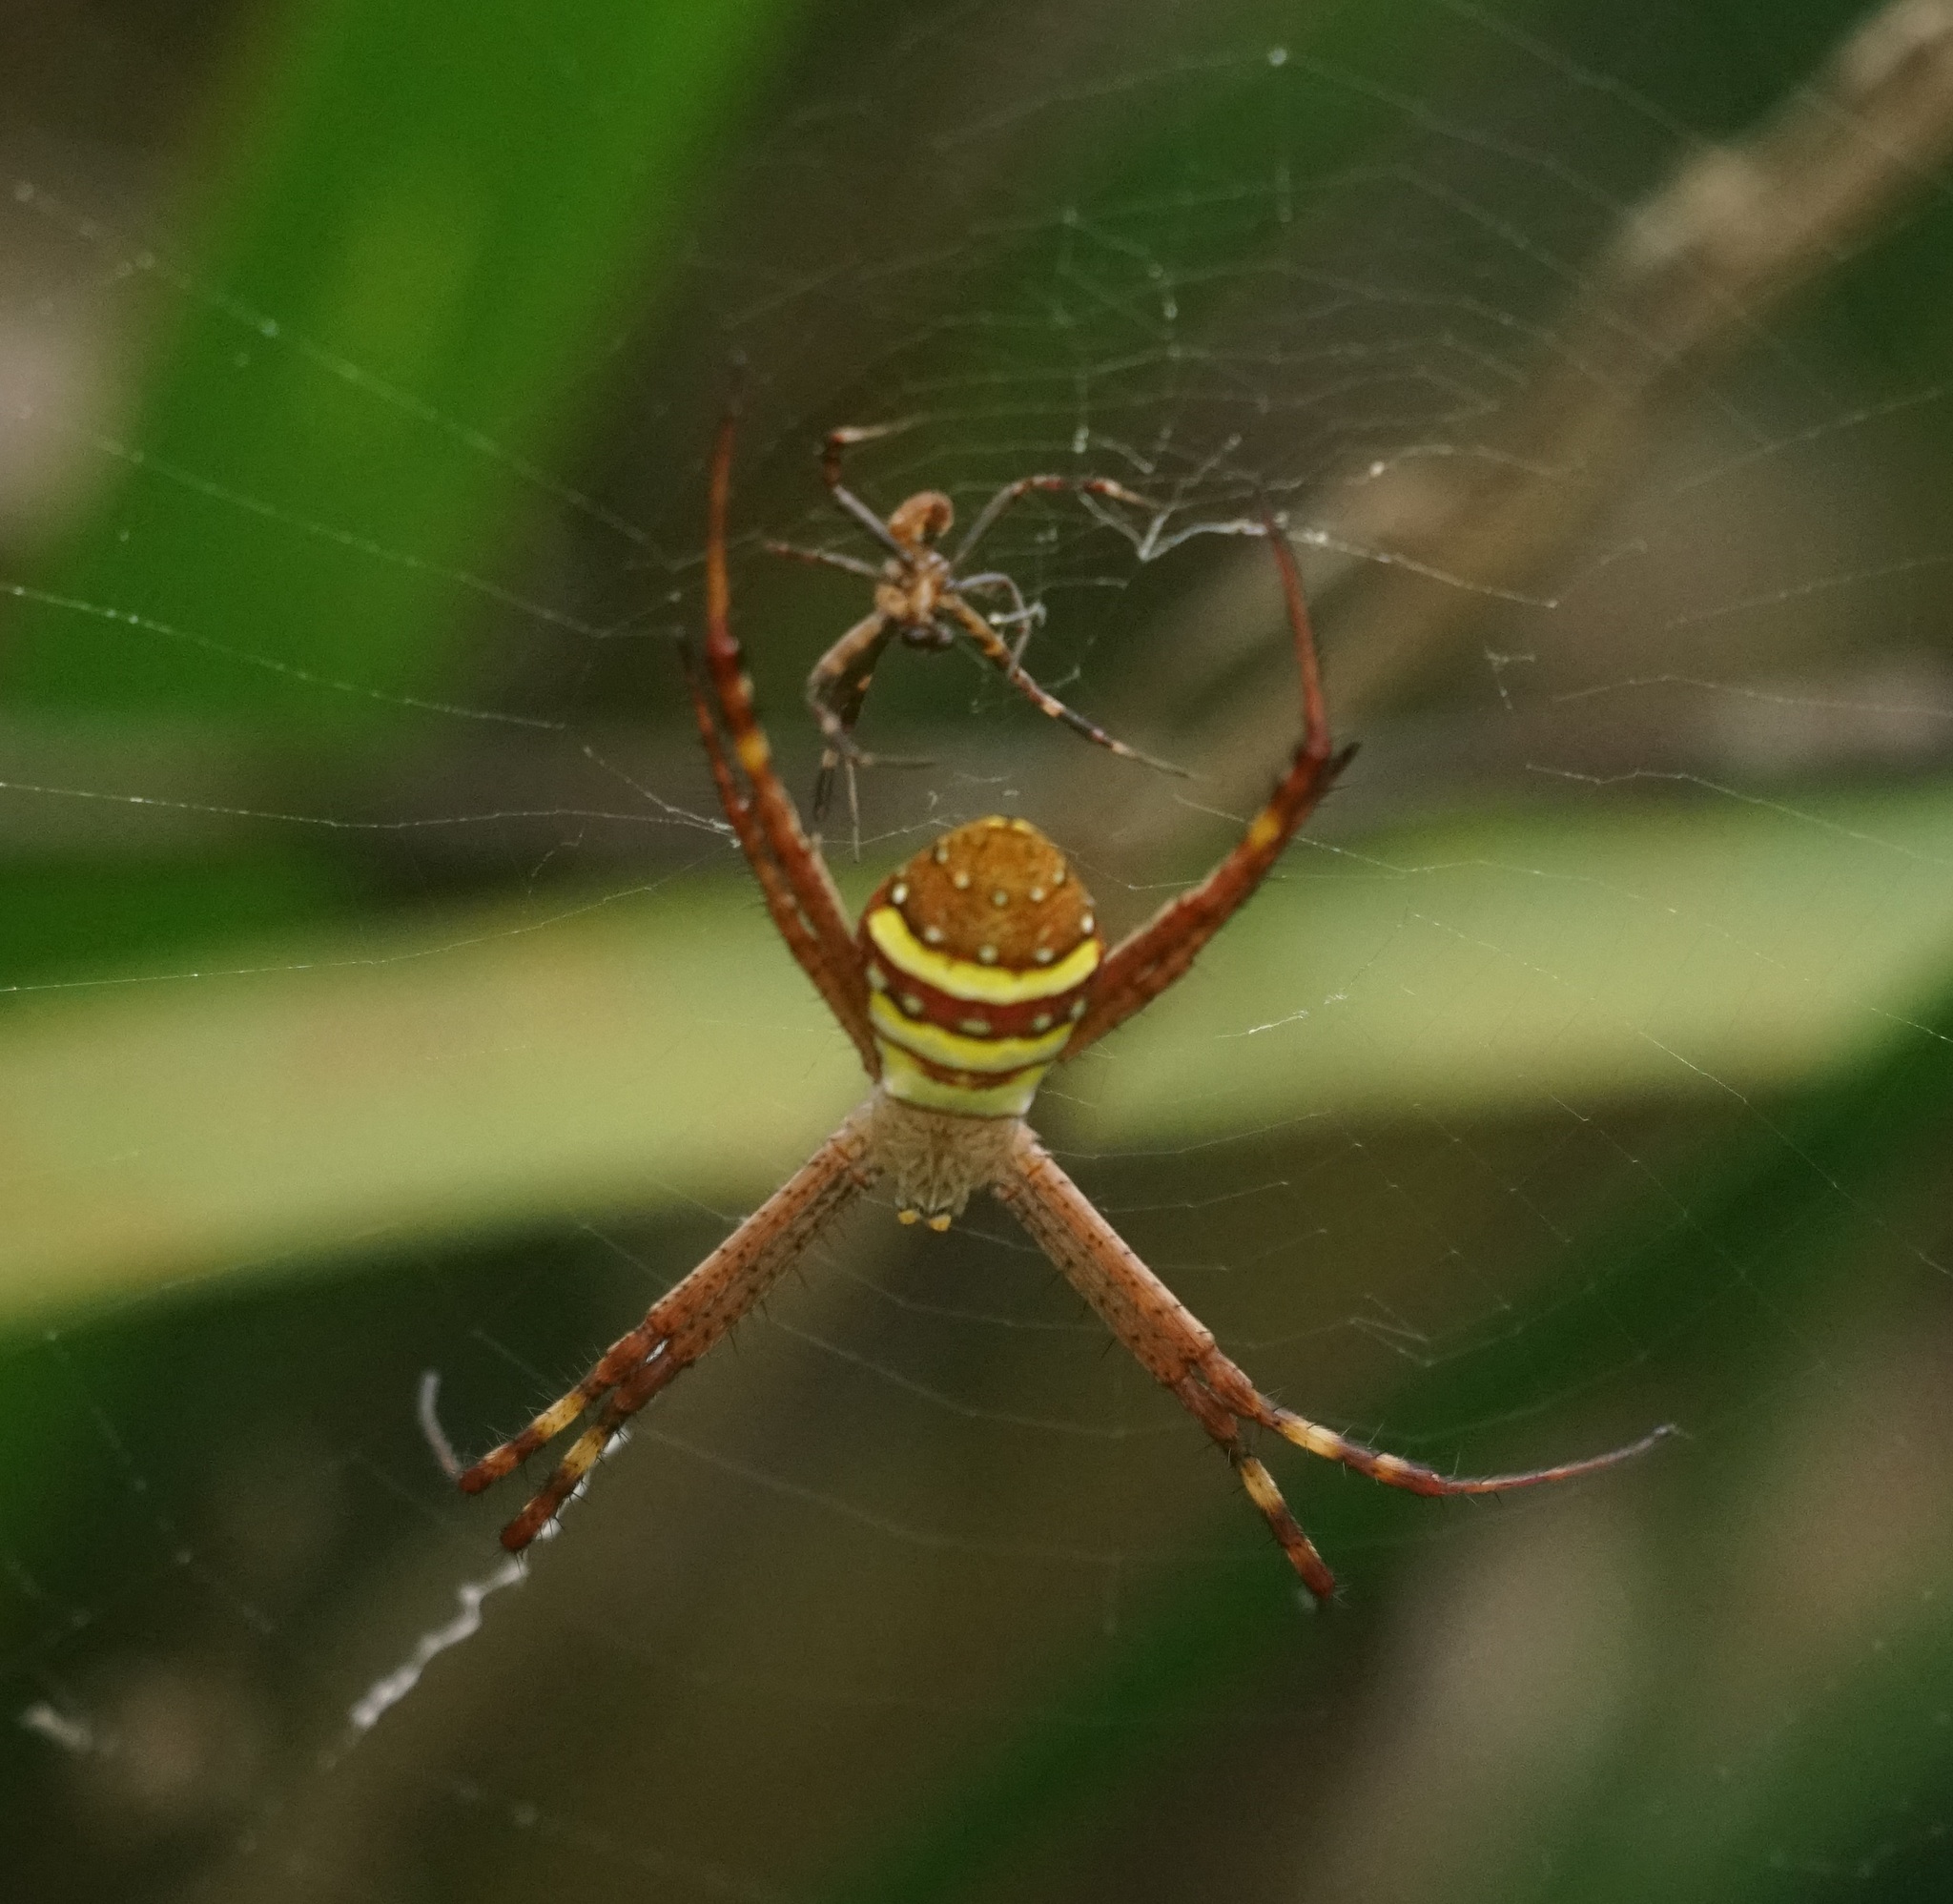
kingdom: Animalia
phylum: Arthropoda
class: Arachnida
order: Araneae
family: Araneidae
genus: Argiope
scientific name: Argiope keyserlingi
